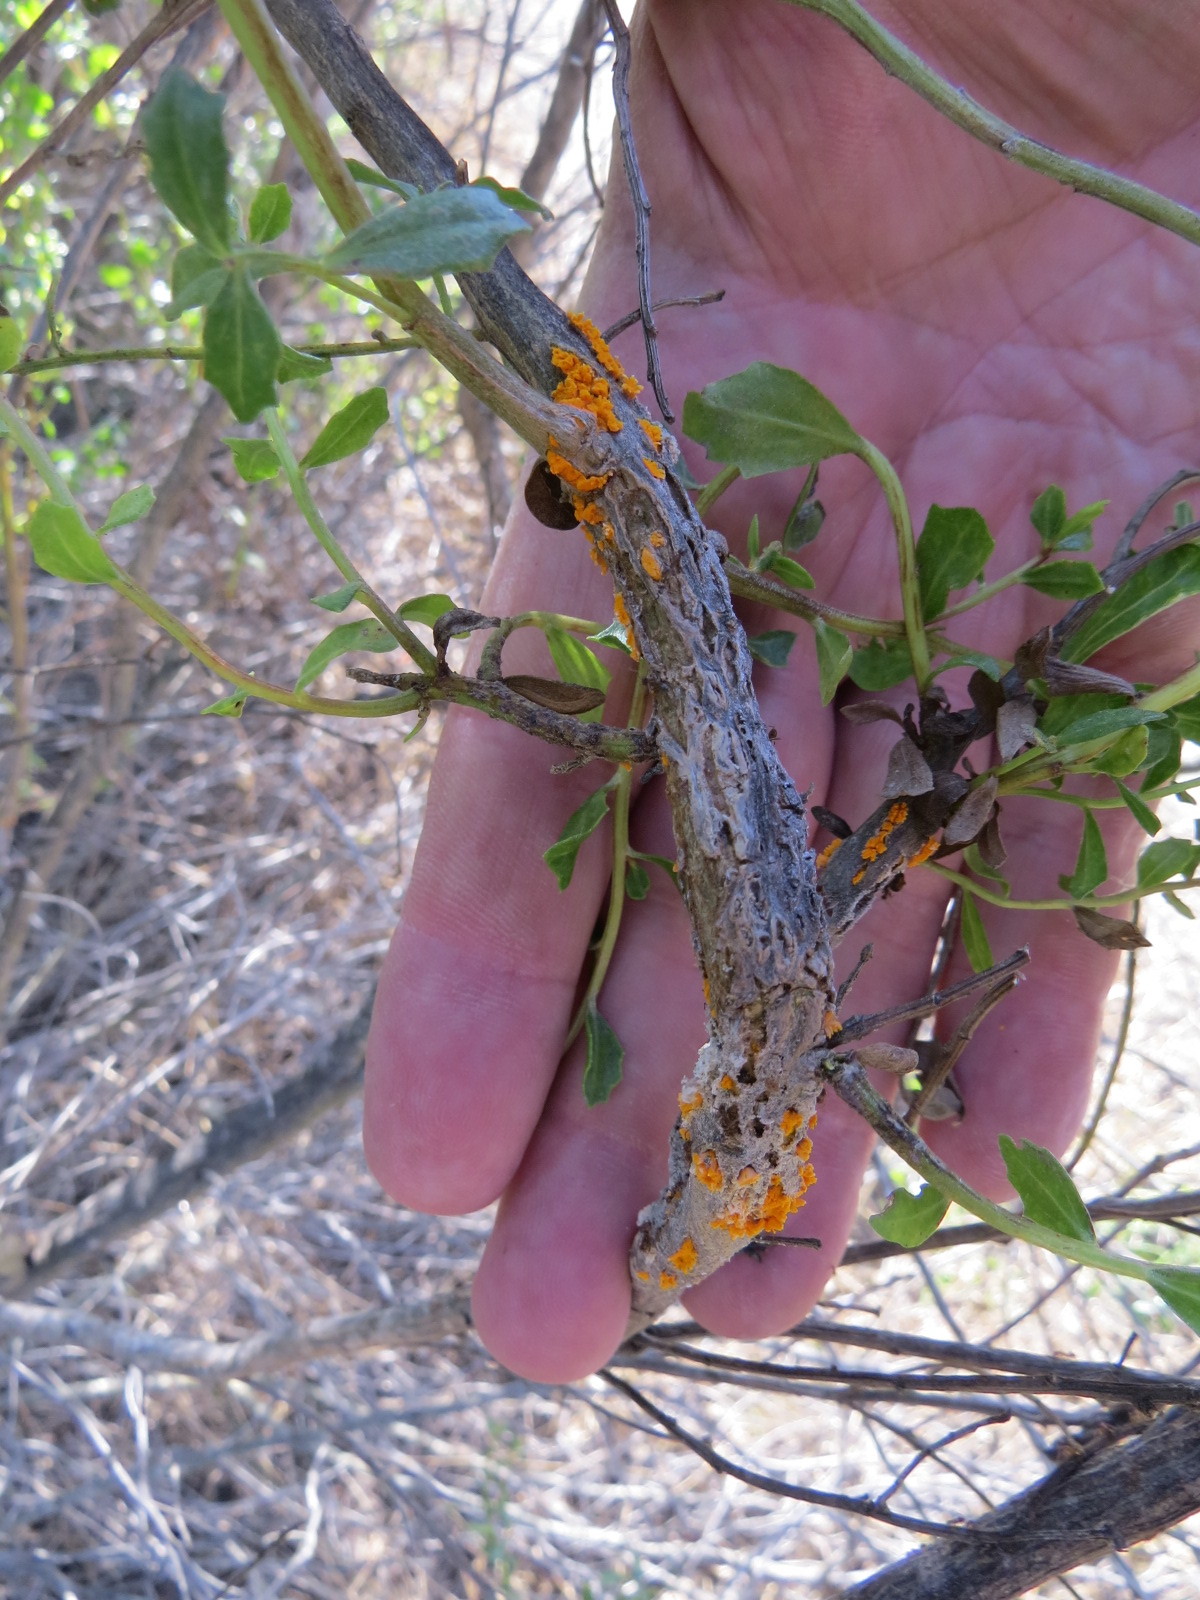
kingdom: Fungi
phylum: Basidiomycota
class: Pucciniomycetes
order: Pucciniales
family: Pucciniaceae
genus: Eriosporangium
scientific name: Eriosporangium evadens
